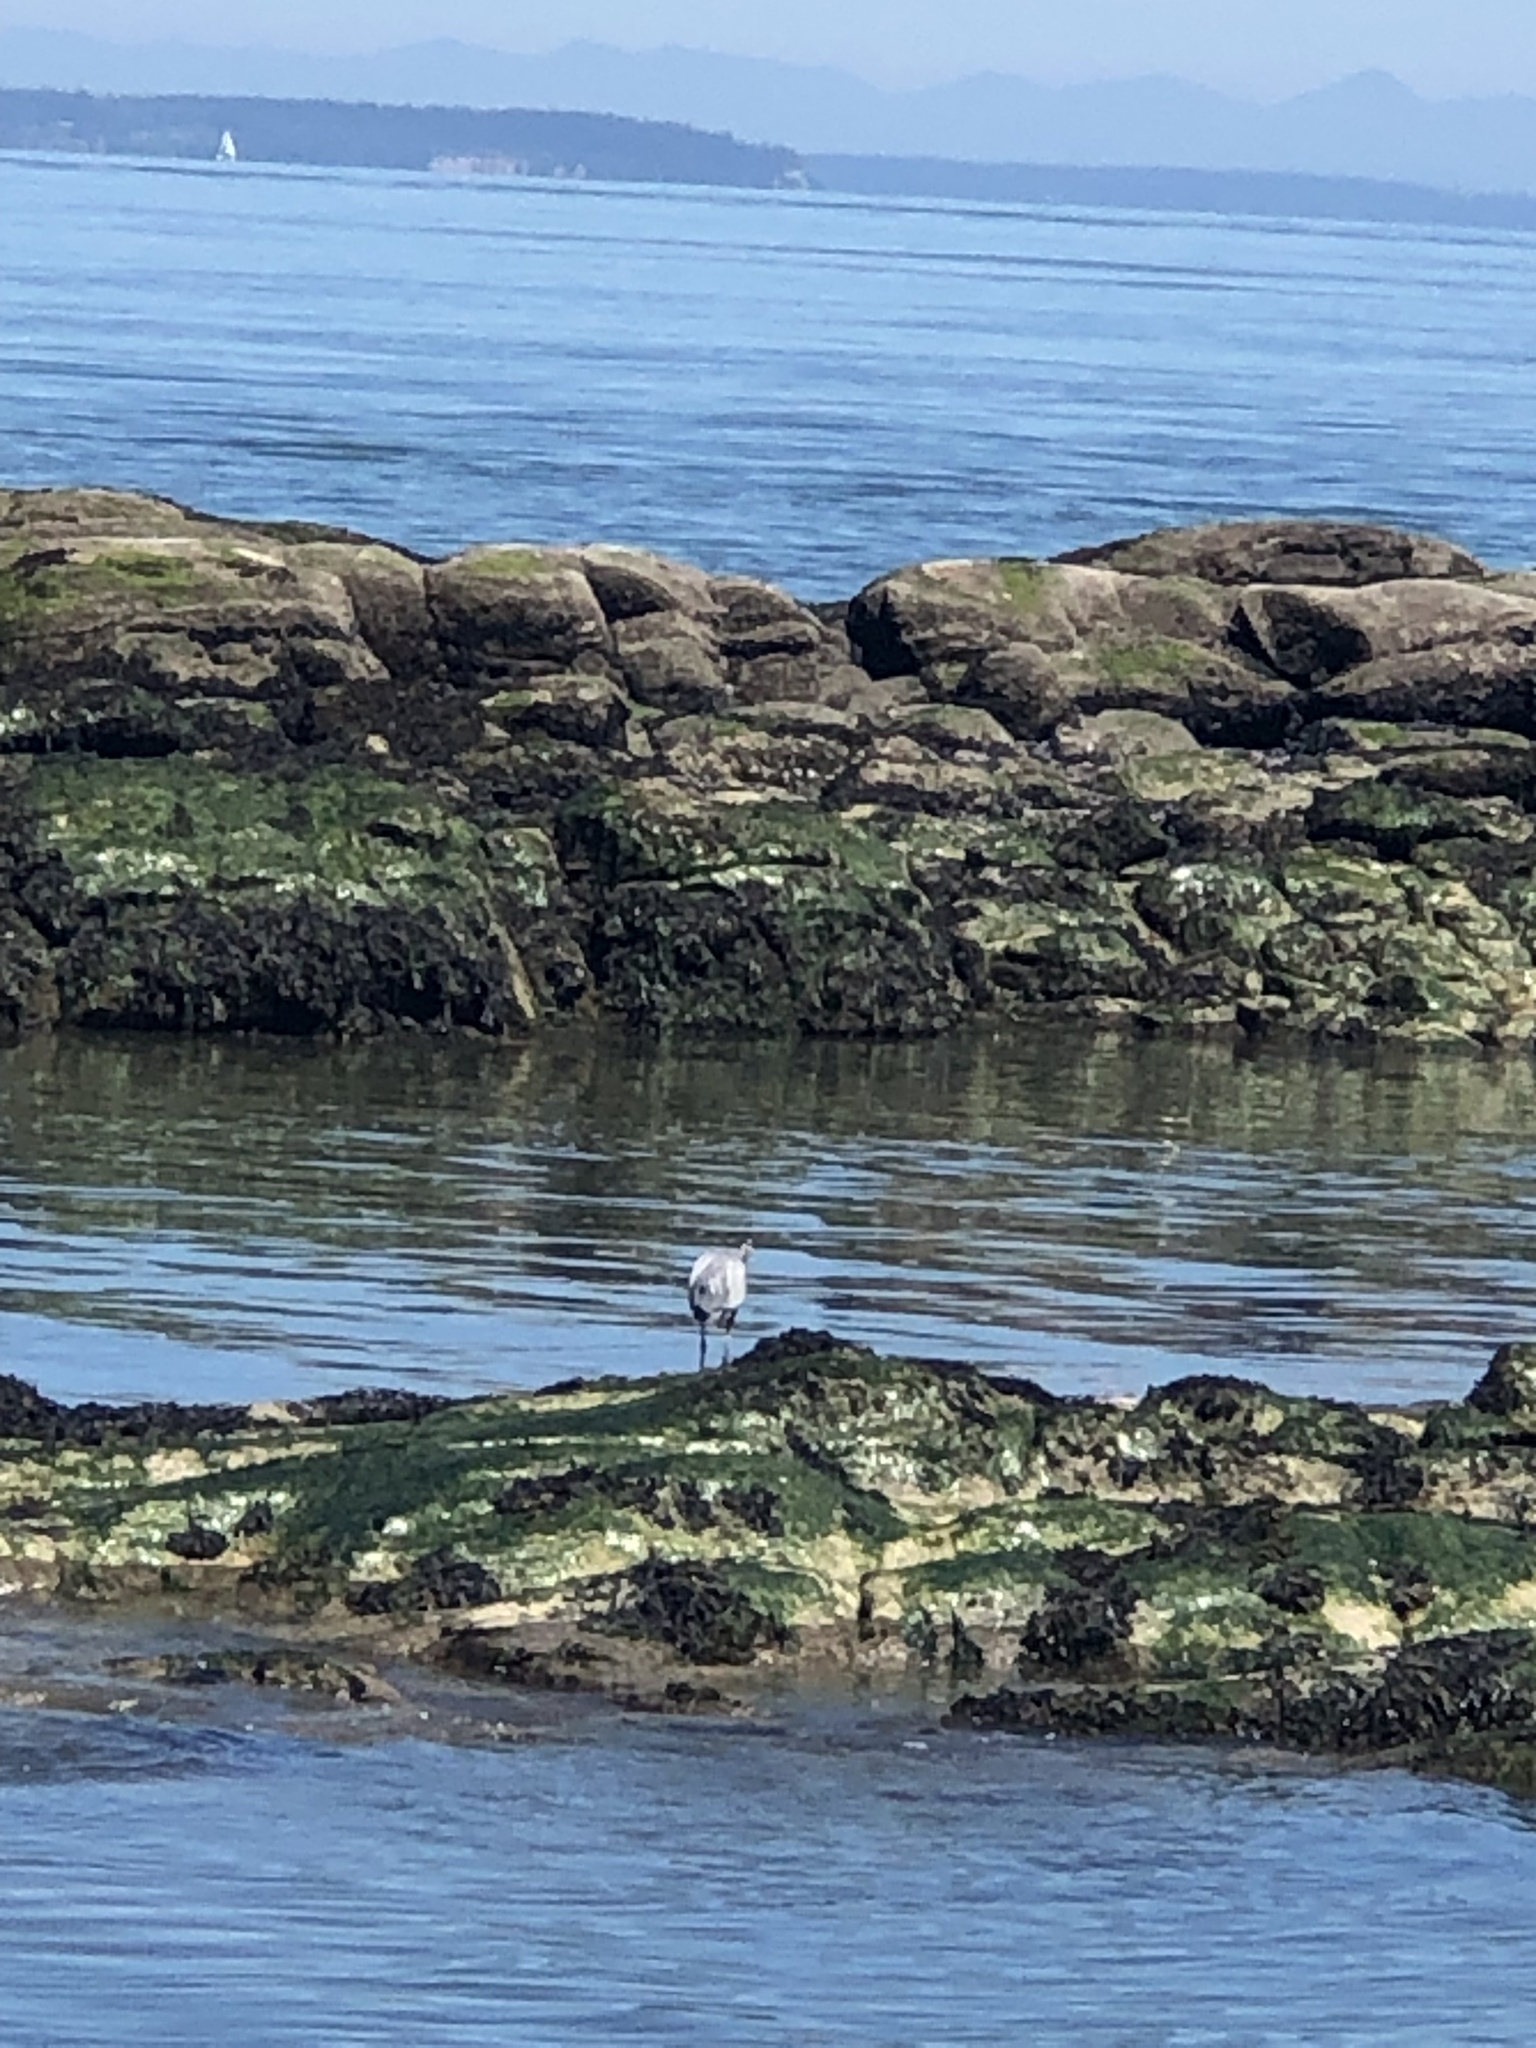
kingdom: Animalia
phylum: Chordata
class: Aves
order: Pelecaniformes
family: Ardeidae
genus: Ardea
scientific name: Ardea herodias
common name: Great blue heron
